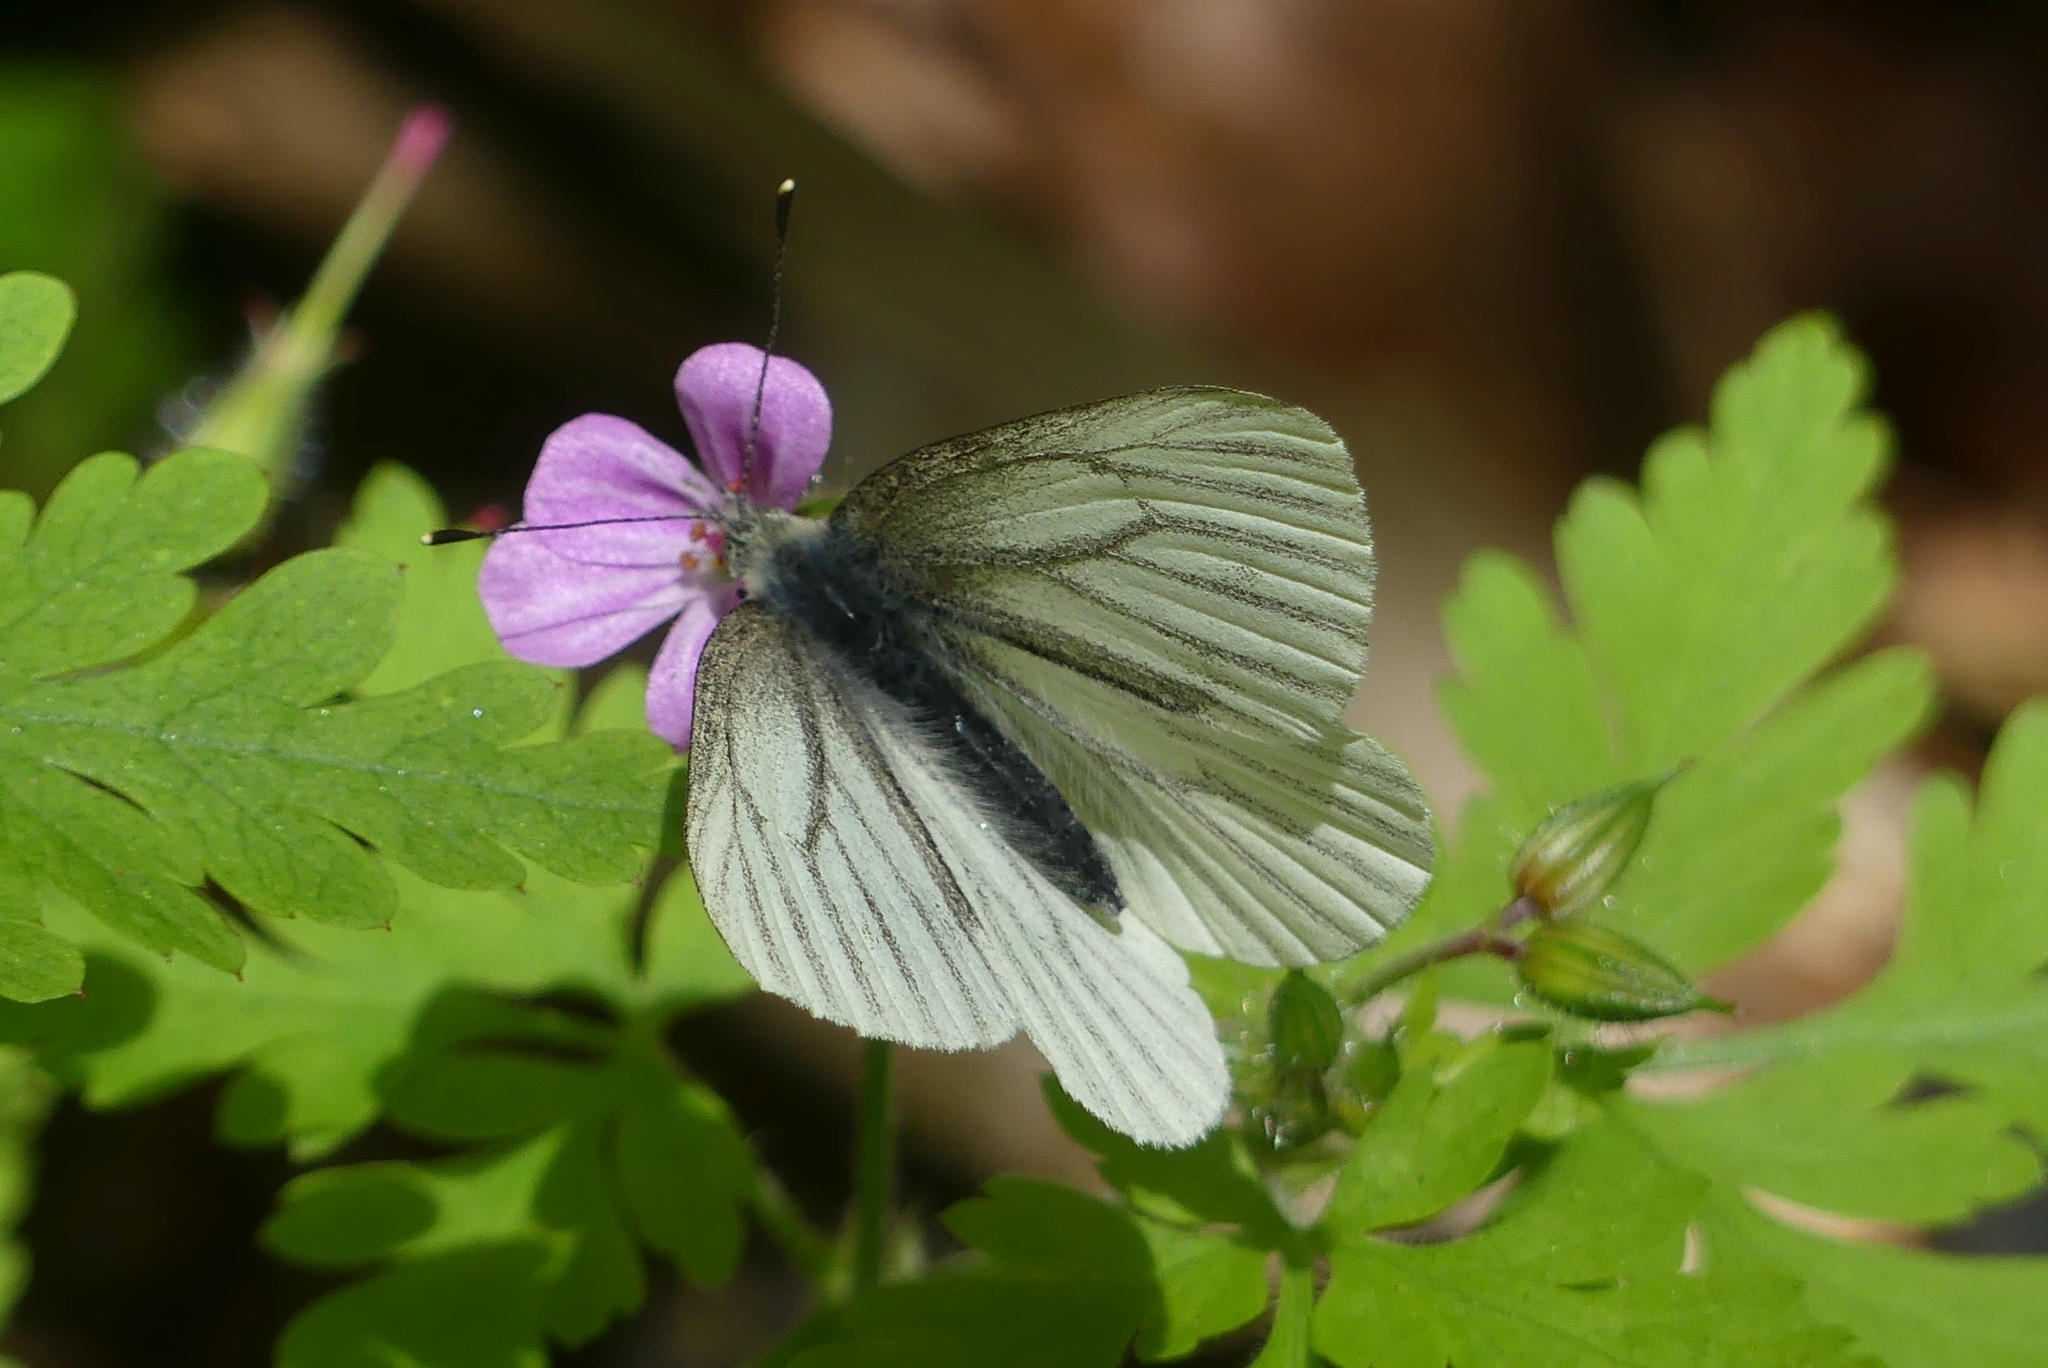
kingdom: Animalia
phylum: Arthropoda
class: Insecta
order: Lepidoptera
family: Pieridae
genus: Pieris
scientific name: Pieris marginalis
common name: Margined white
